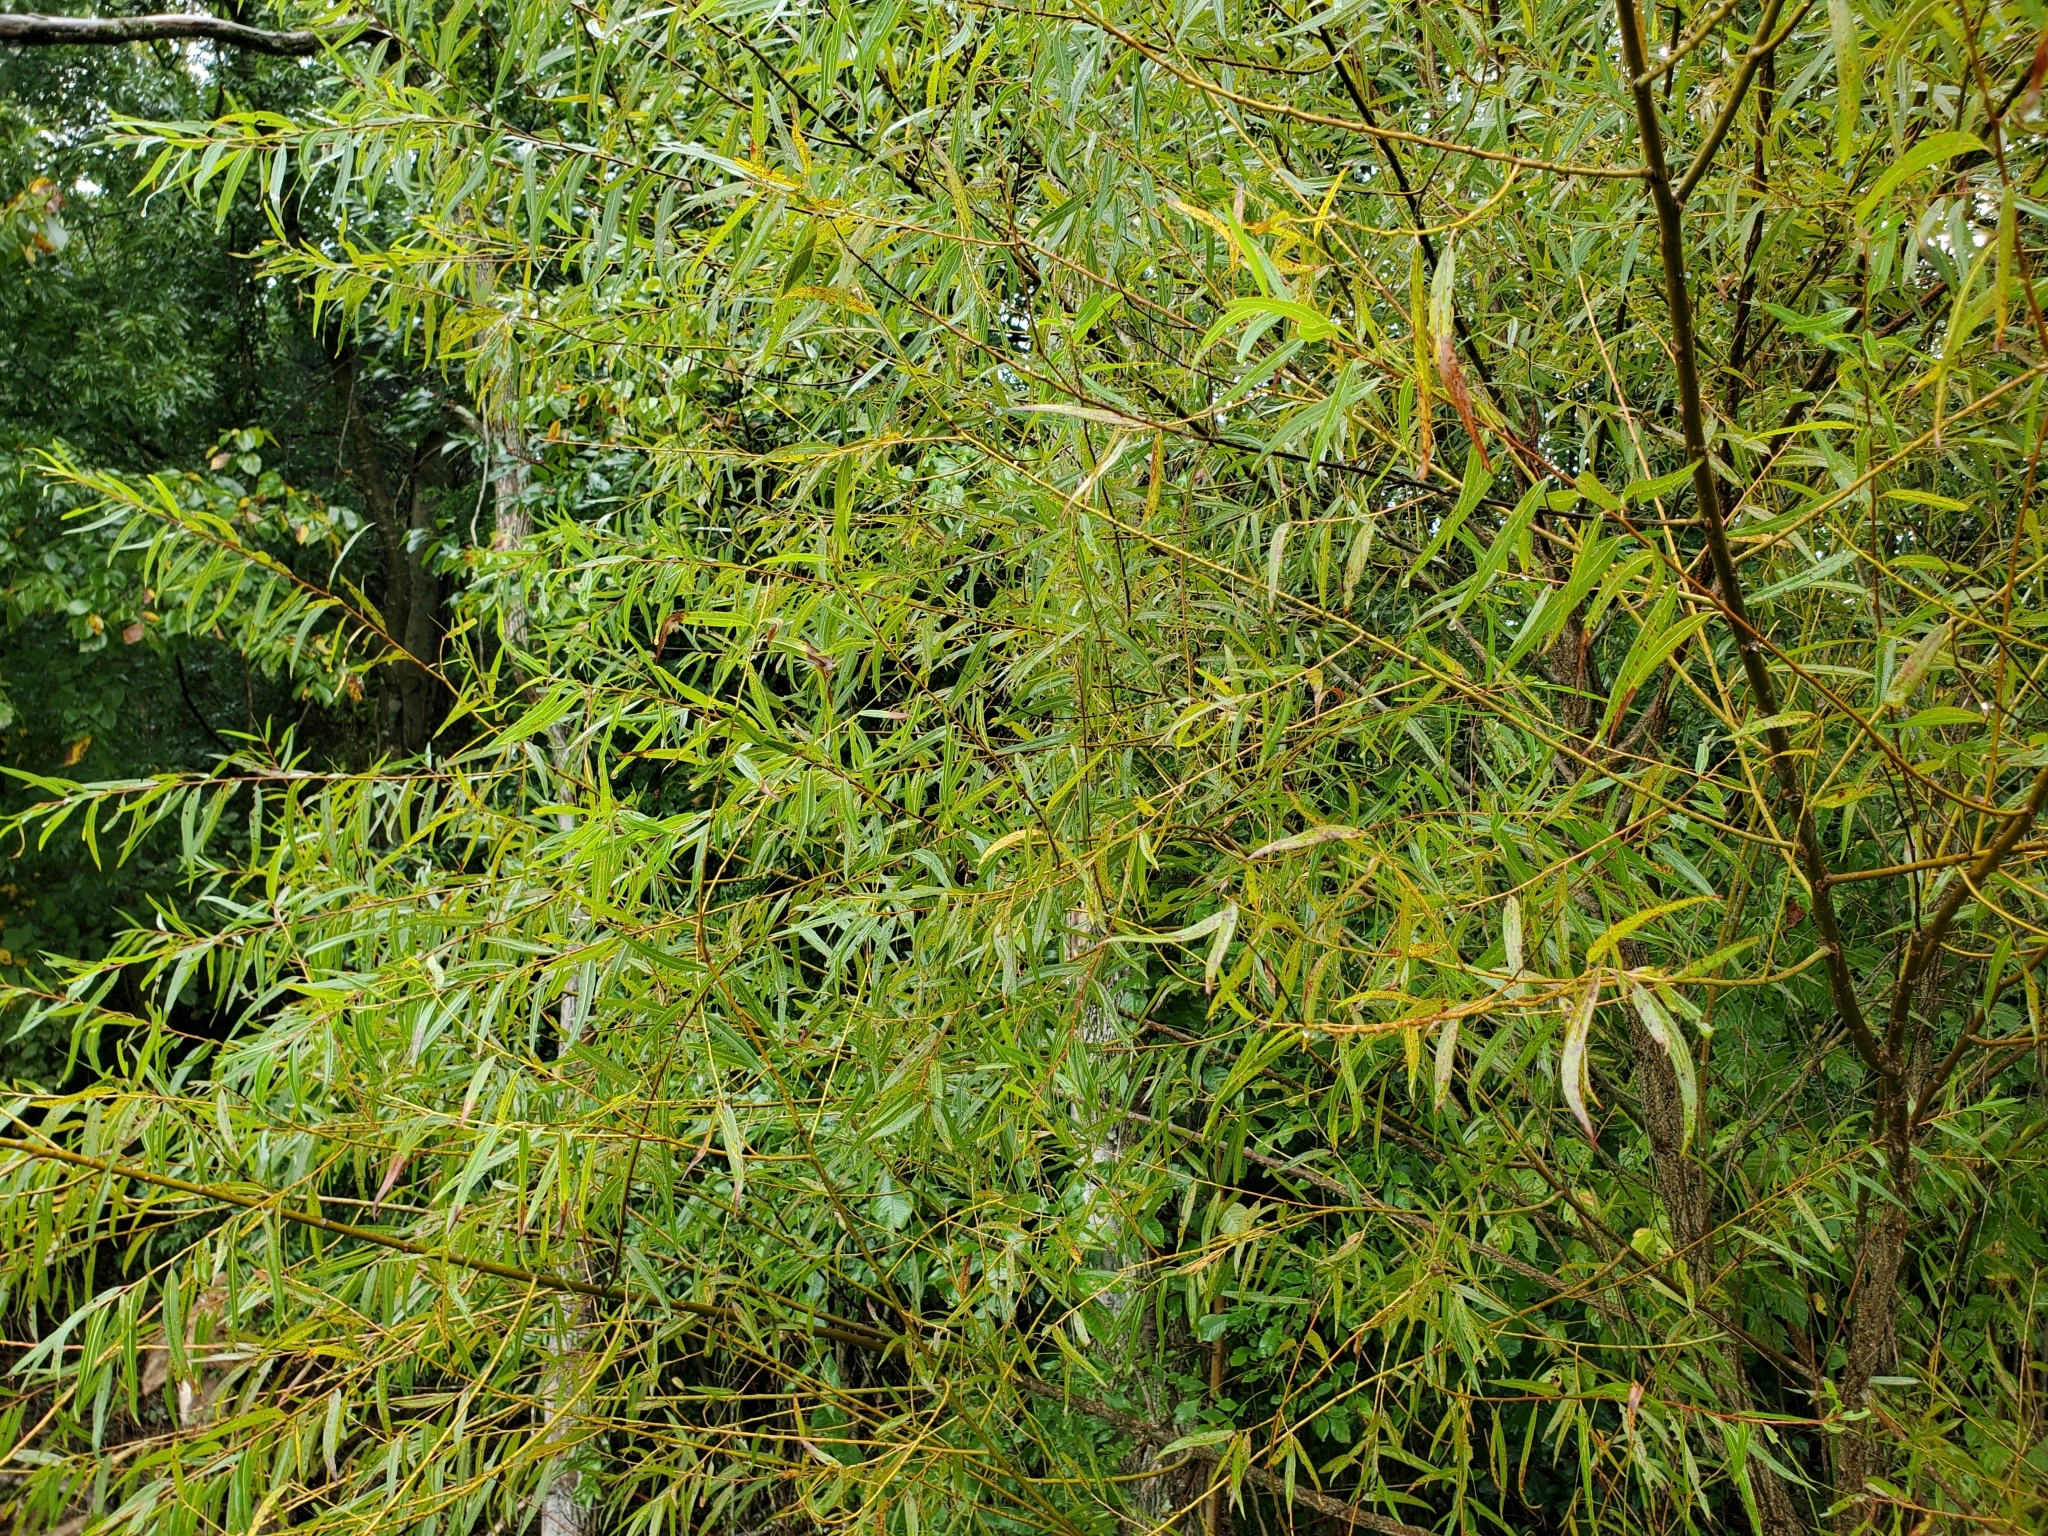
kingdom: Plantae
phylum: Tracheophyta
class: Magnoliopsida
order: Malpighiales
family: Salicaceae
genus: Salix
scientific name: Salix nigra
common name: Black willow
